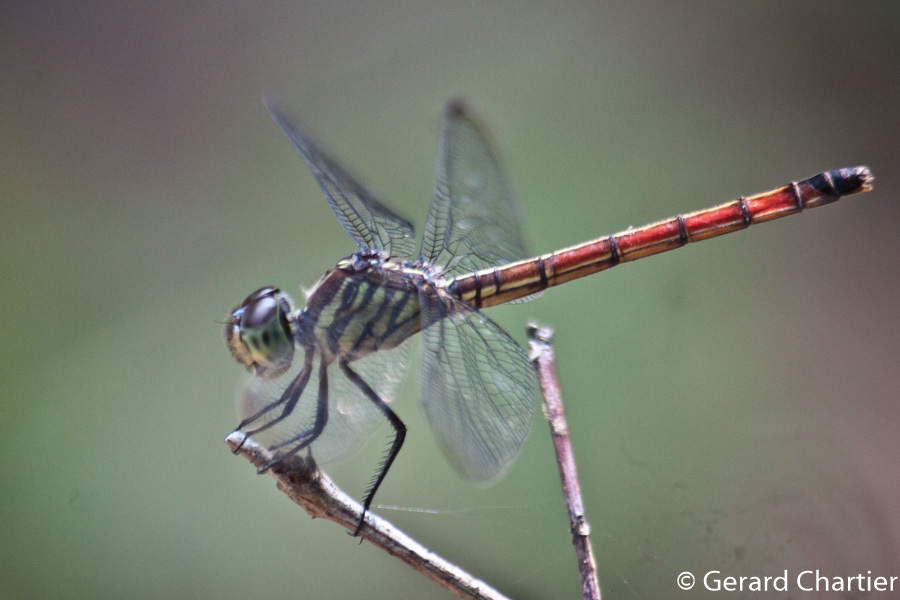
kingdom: Animalia
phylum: Arthropoda
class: Insecta
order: Odonata
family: Libellulidae
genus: Lathrecista
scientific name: Lathrecista asiatica
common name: Scarlet grenadier
